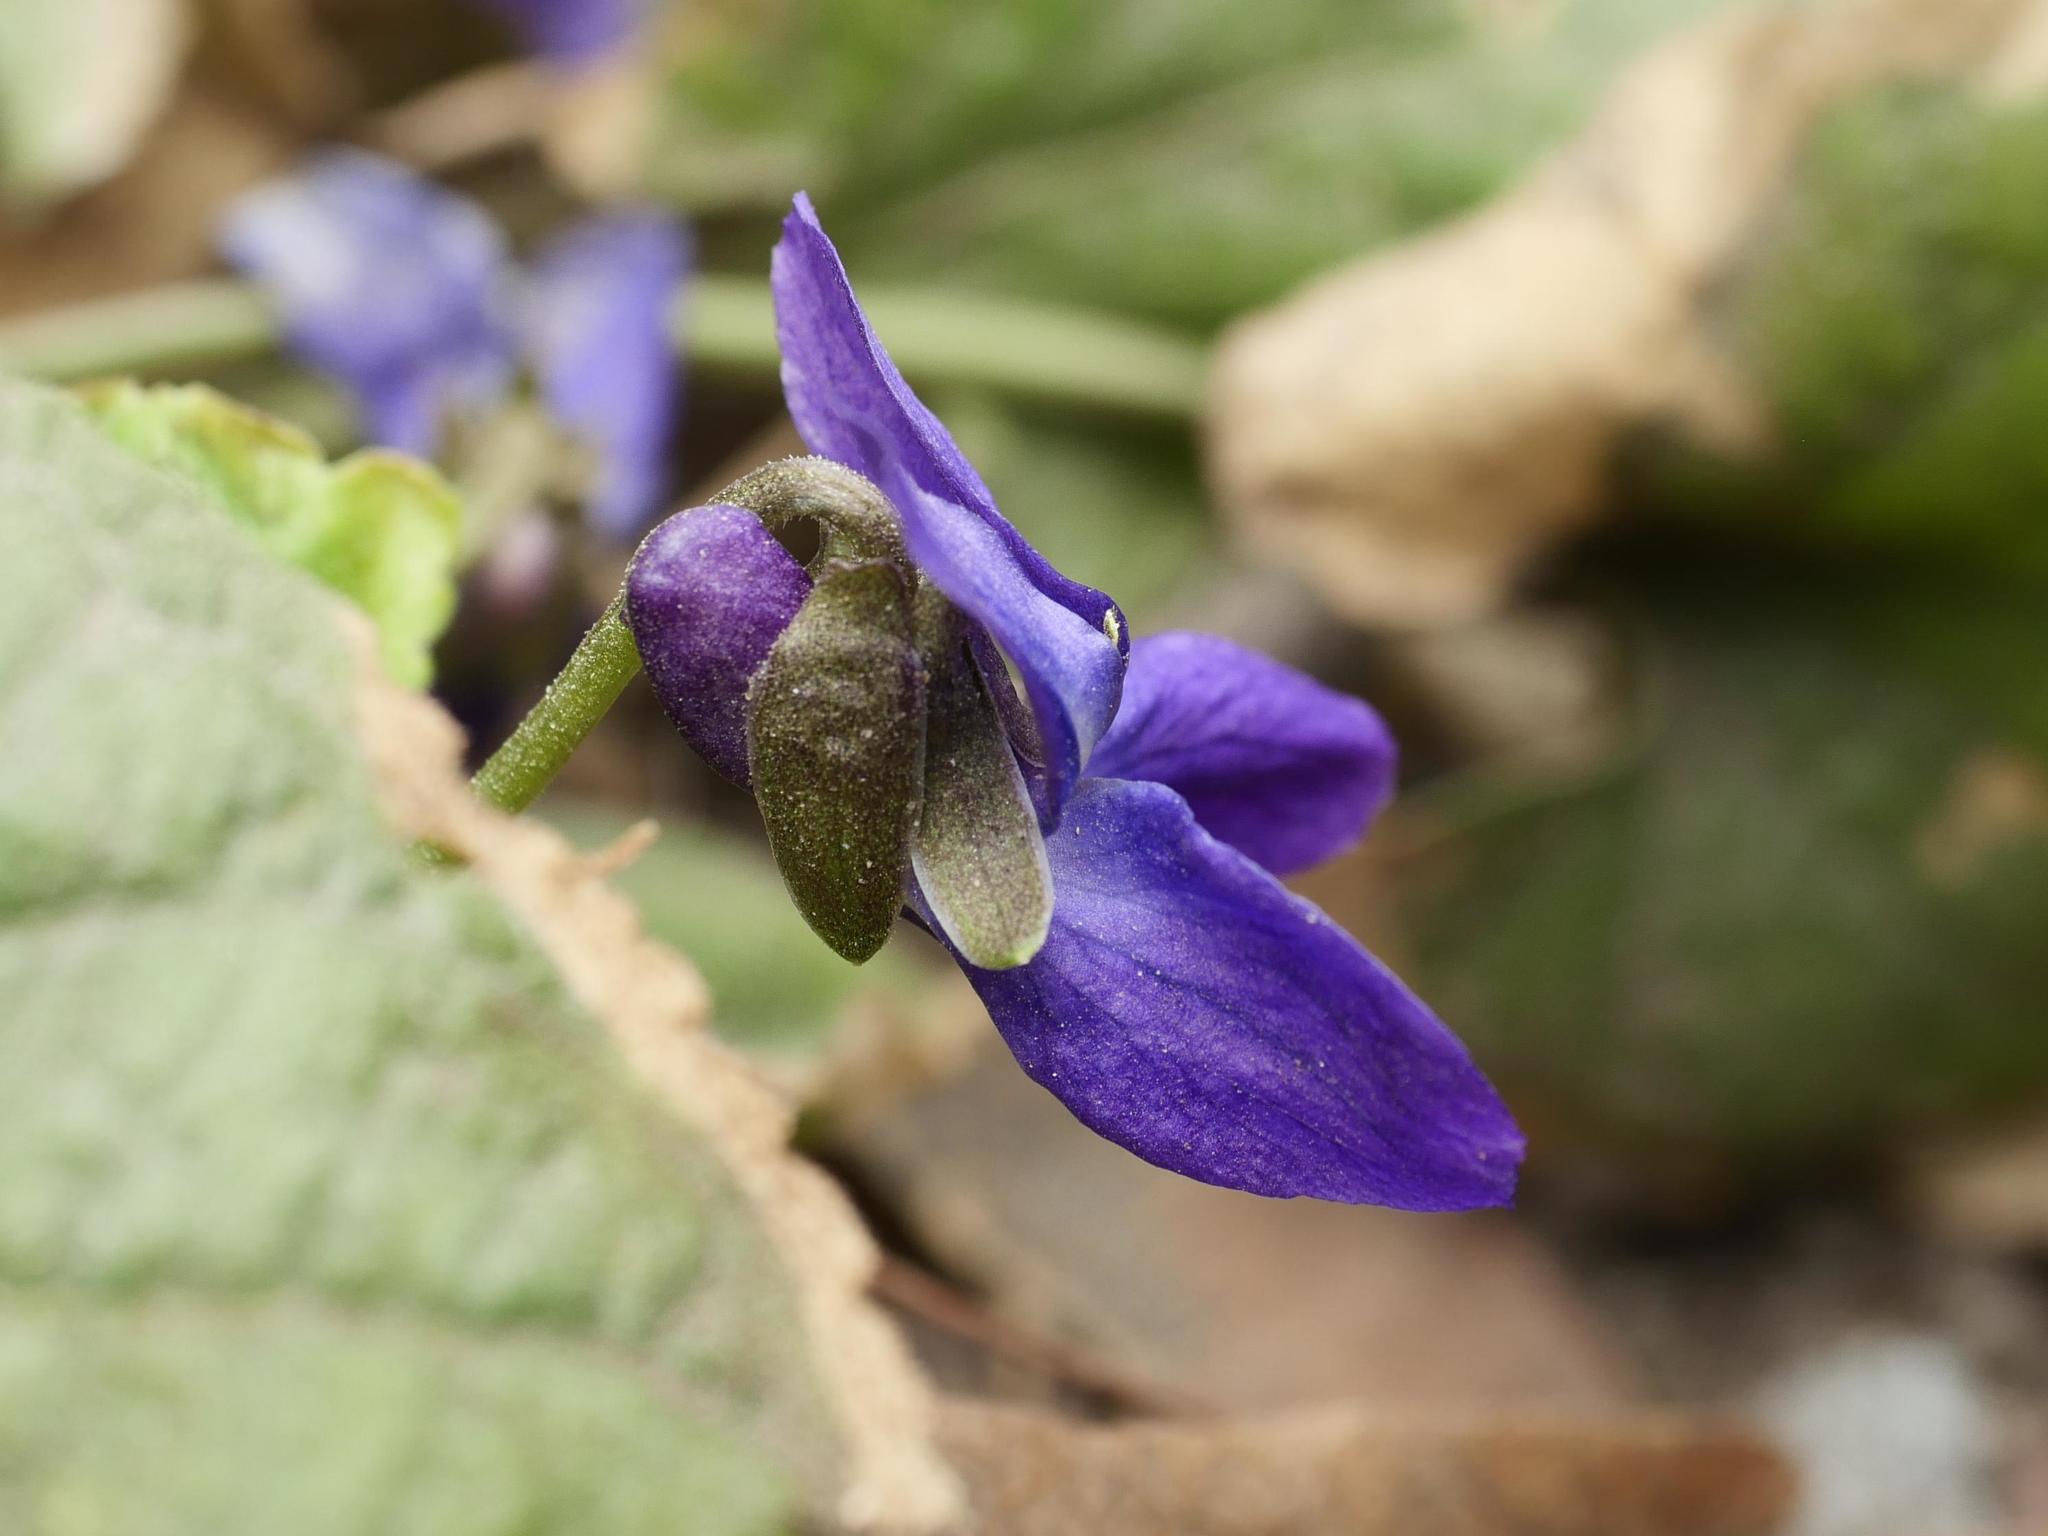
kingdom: Plantae
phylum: Tracheophyta
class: Magnoliopsida
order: Malpighiales
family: Violaceae
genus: Viola
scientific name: Viola odorata
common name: Sweet violet
